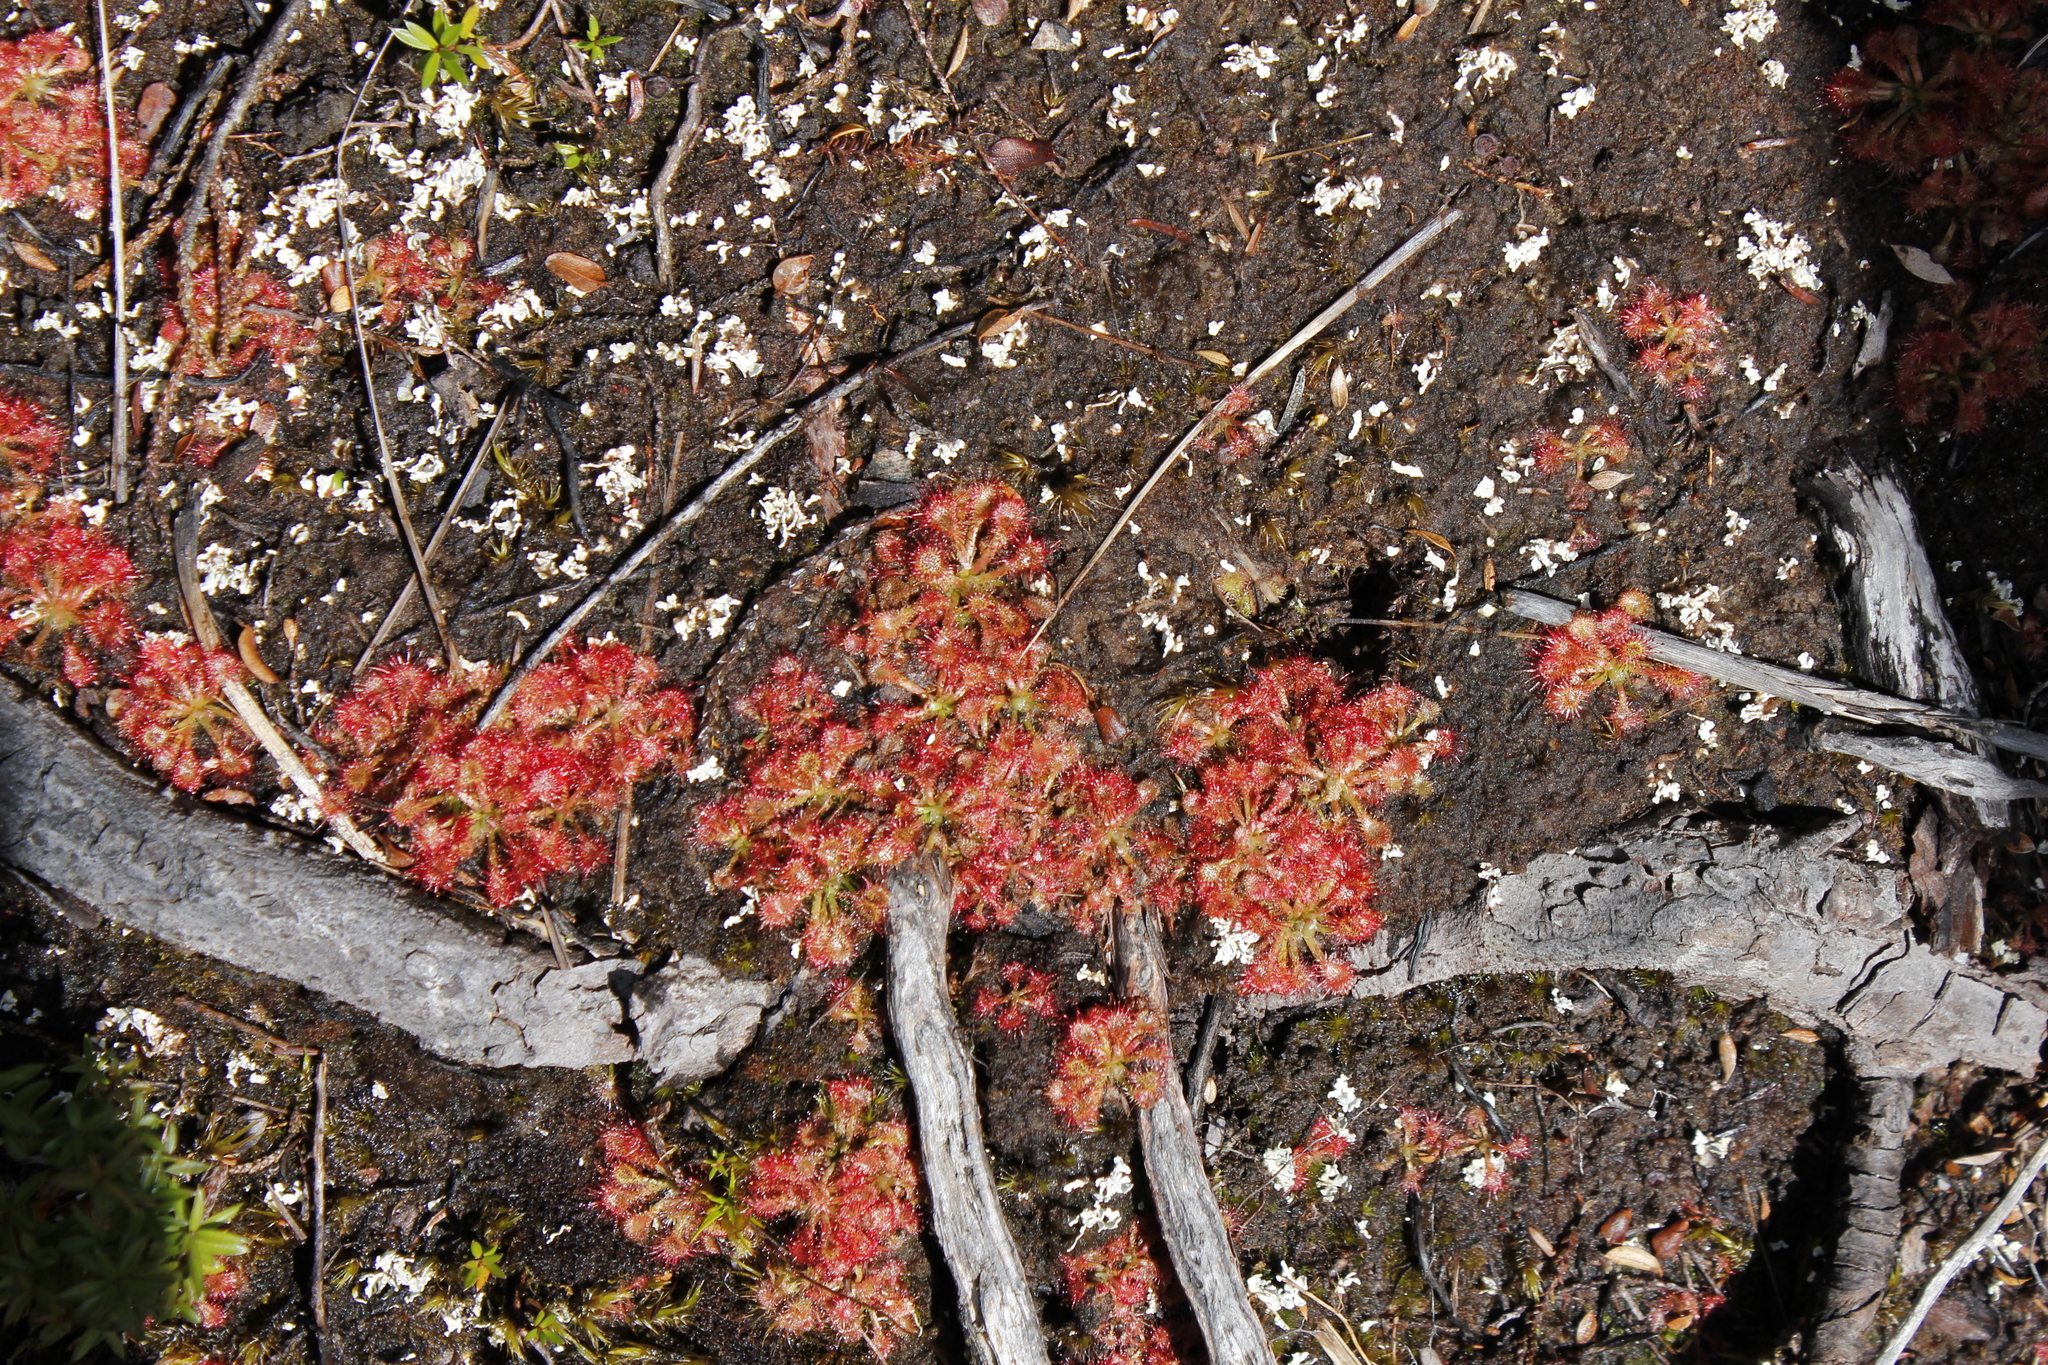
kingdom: Plantae
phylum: Tracheophyta
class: Magnoliopsida
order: Caryophyllales
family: Droseraceae
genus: Drosera
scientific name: Drosera spatulata
